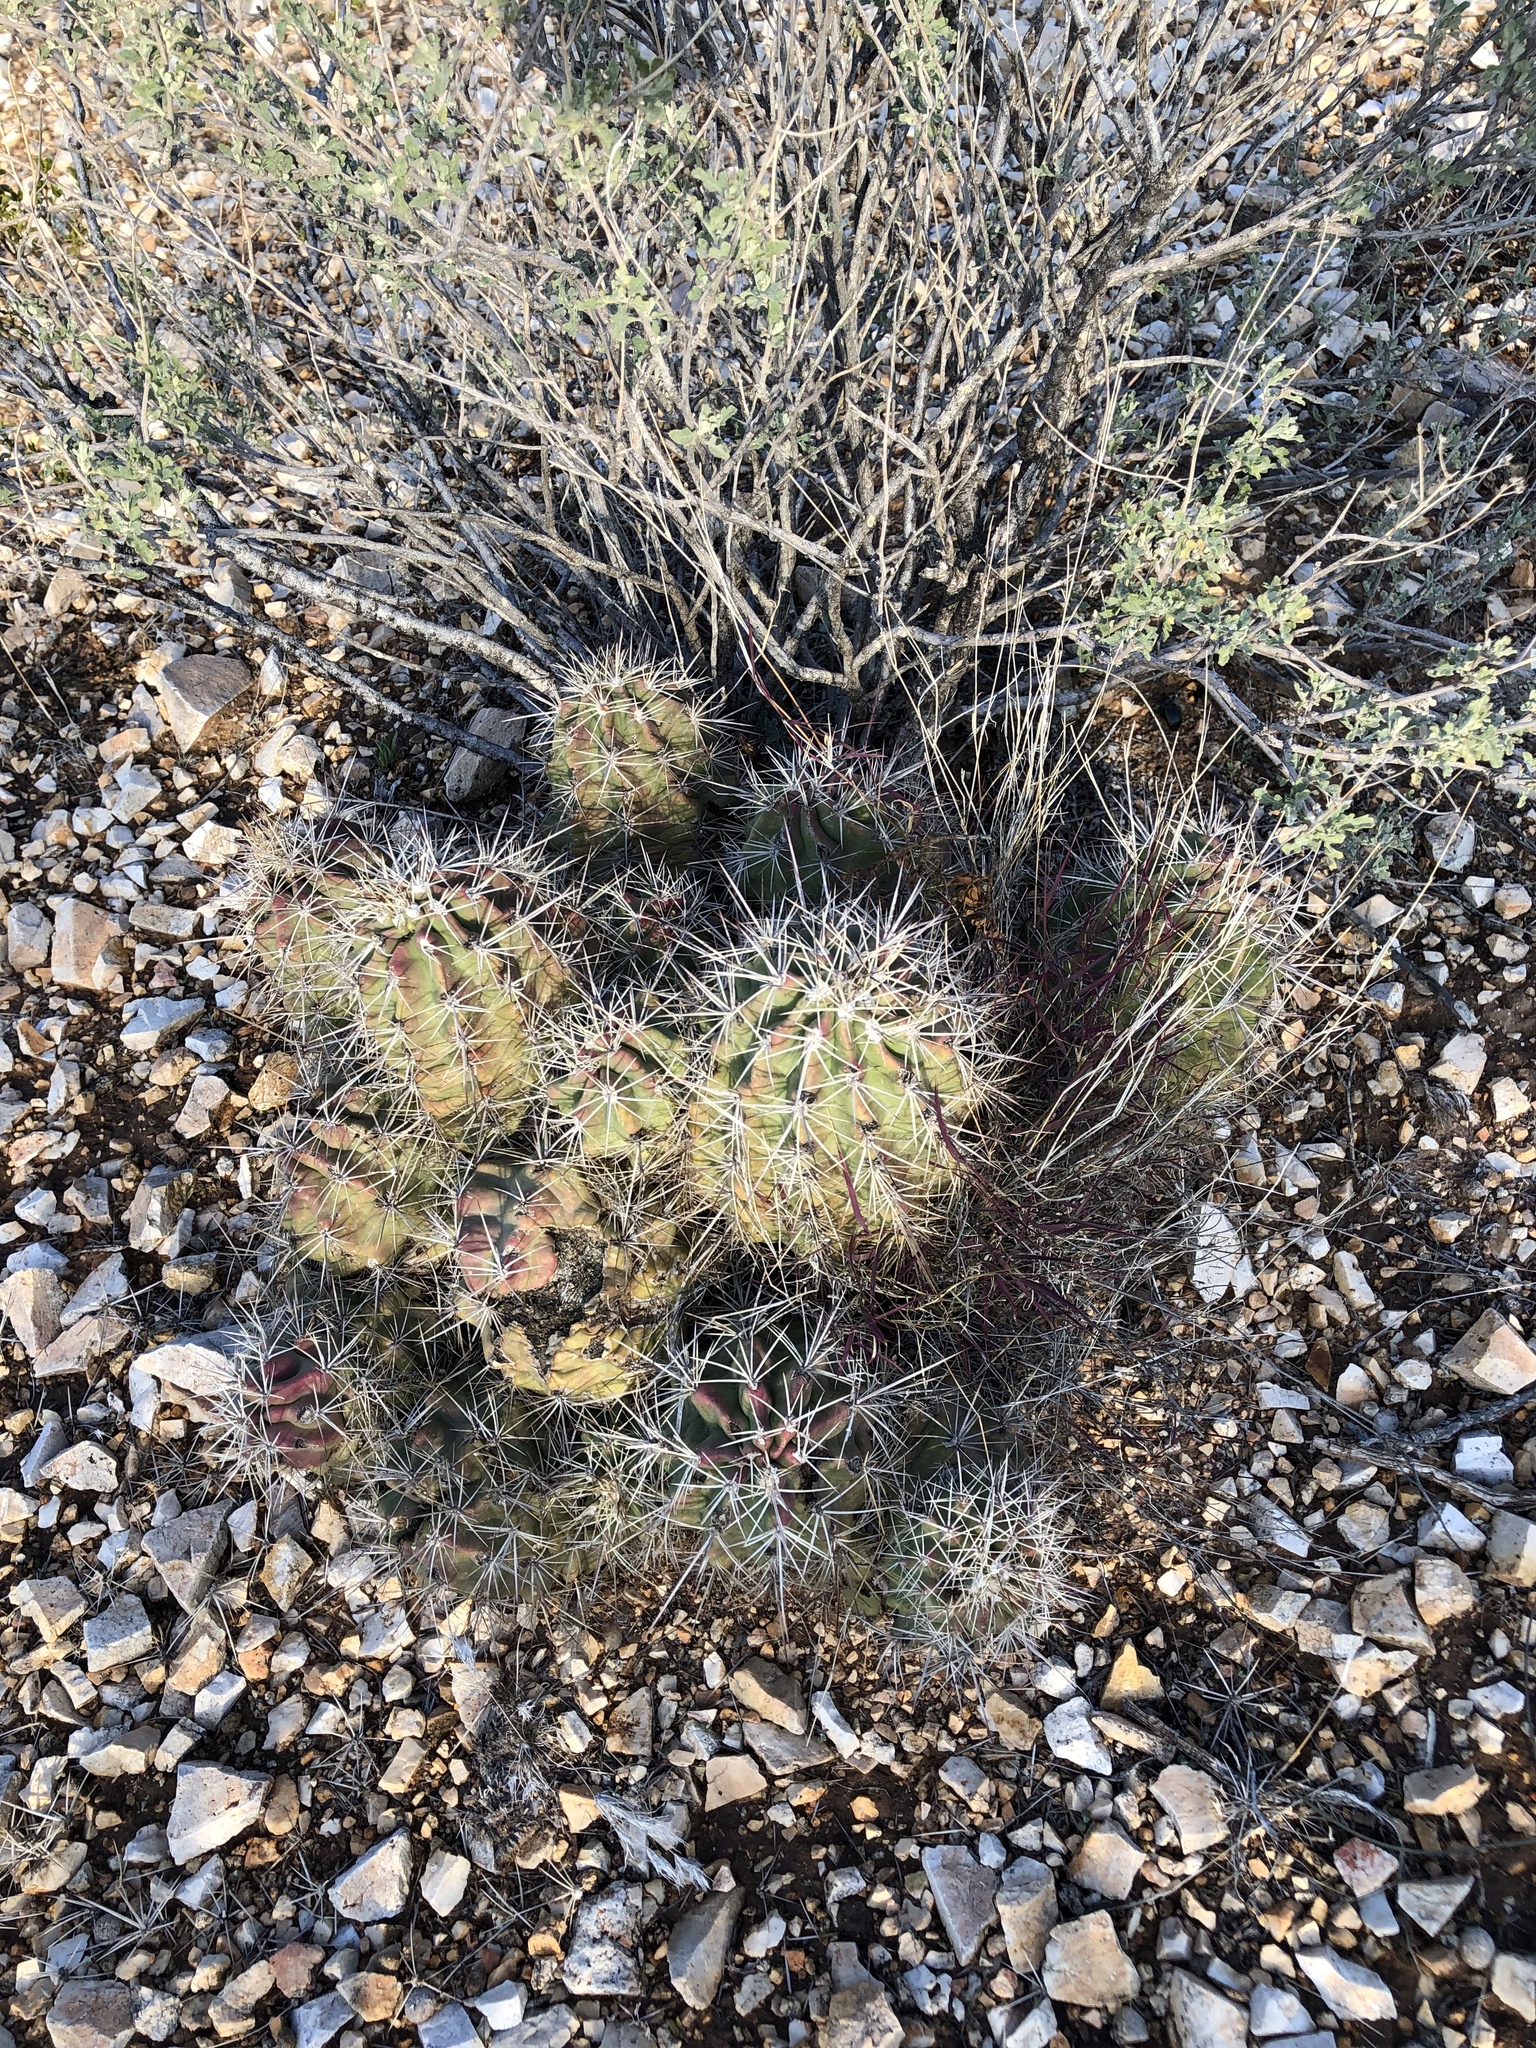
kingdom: Plantae
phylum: Tracheophyta
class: Magnoliopsida
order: Caryophyllales
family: Cactaceae
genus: Echinocereus
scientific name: Echinocereus coccineus
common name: Scarlet hedgehog cactus
